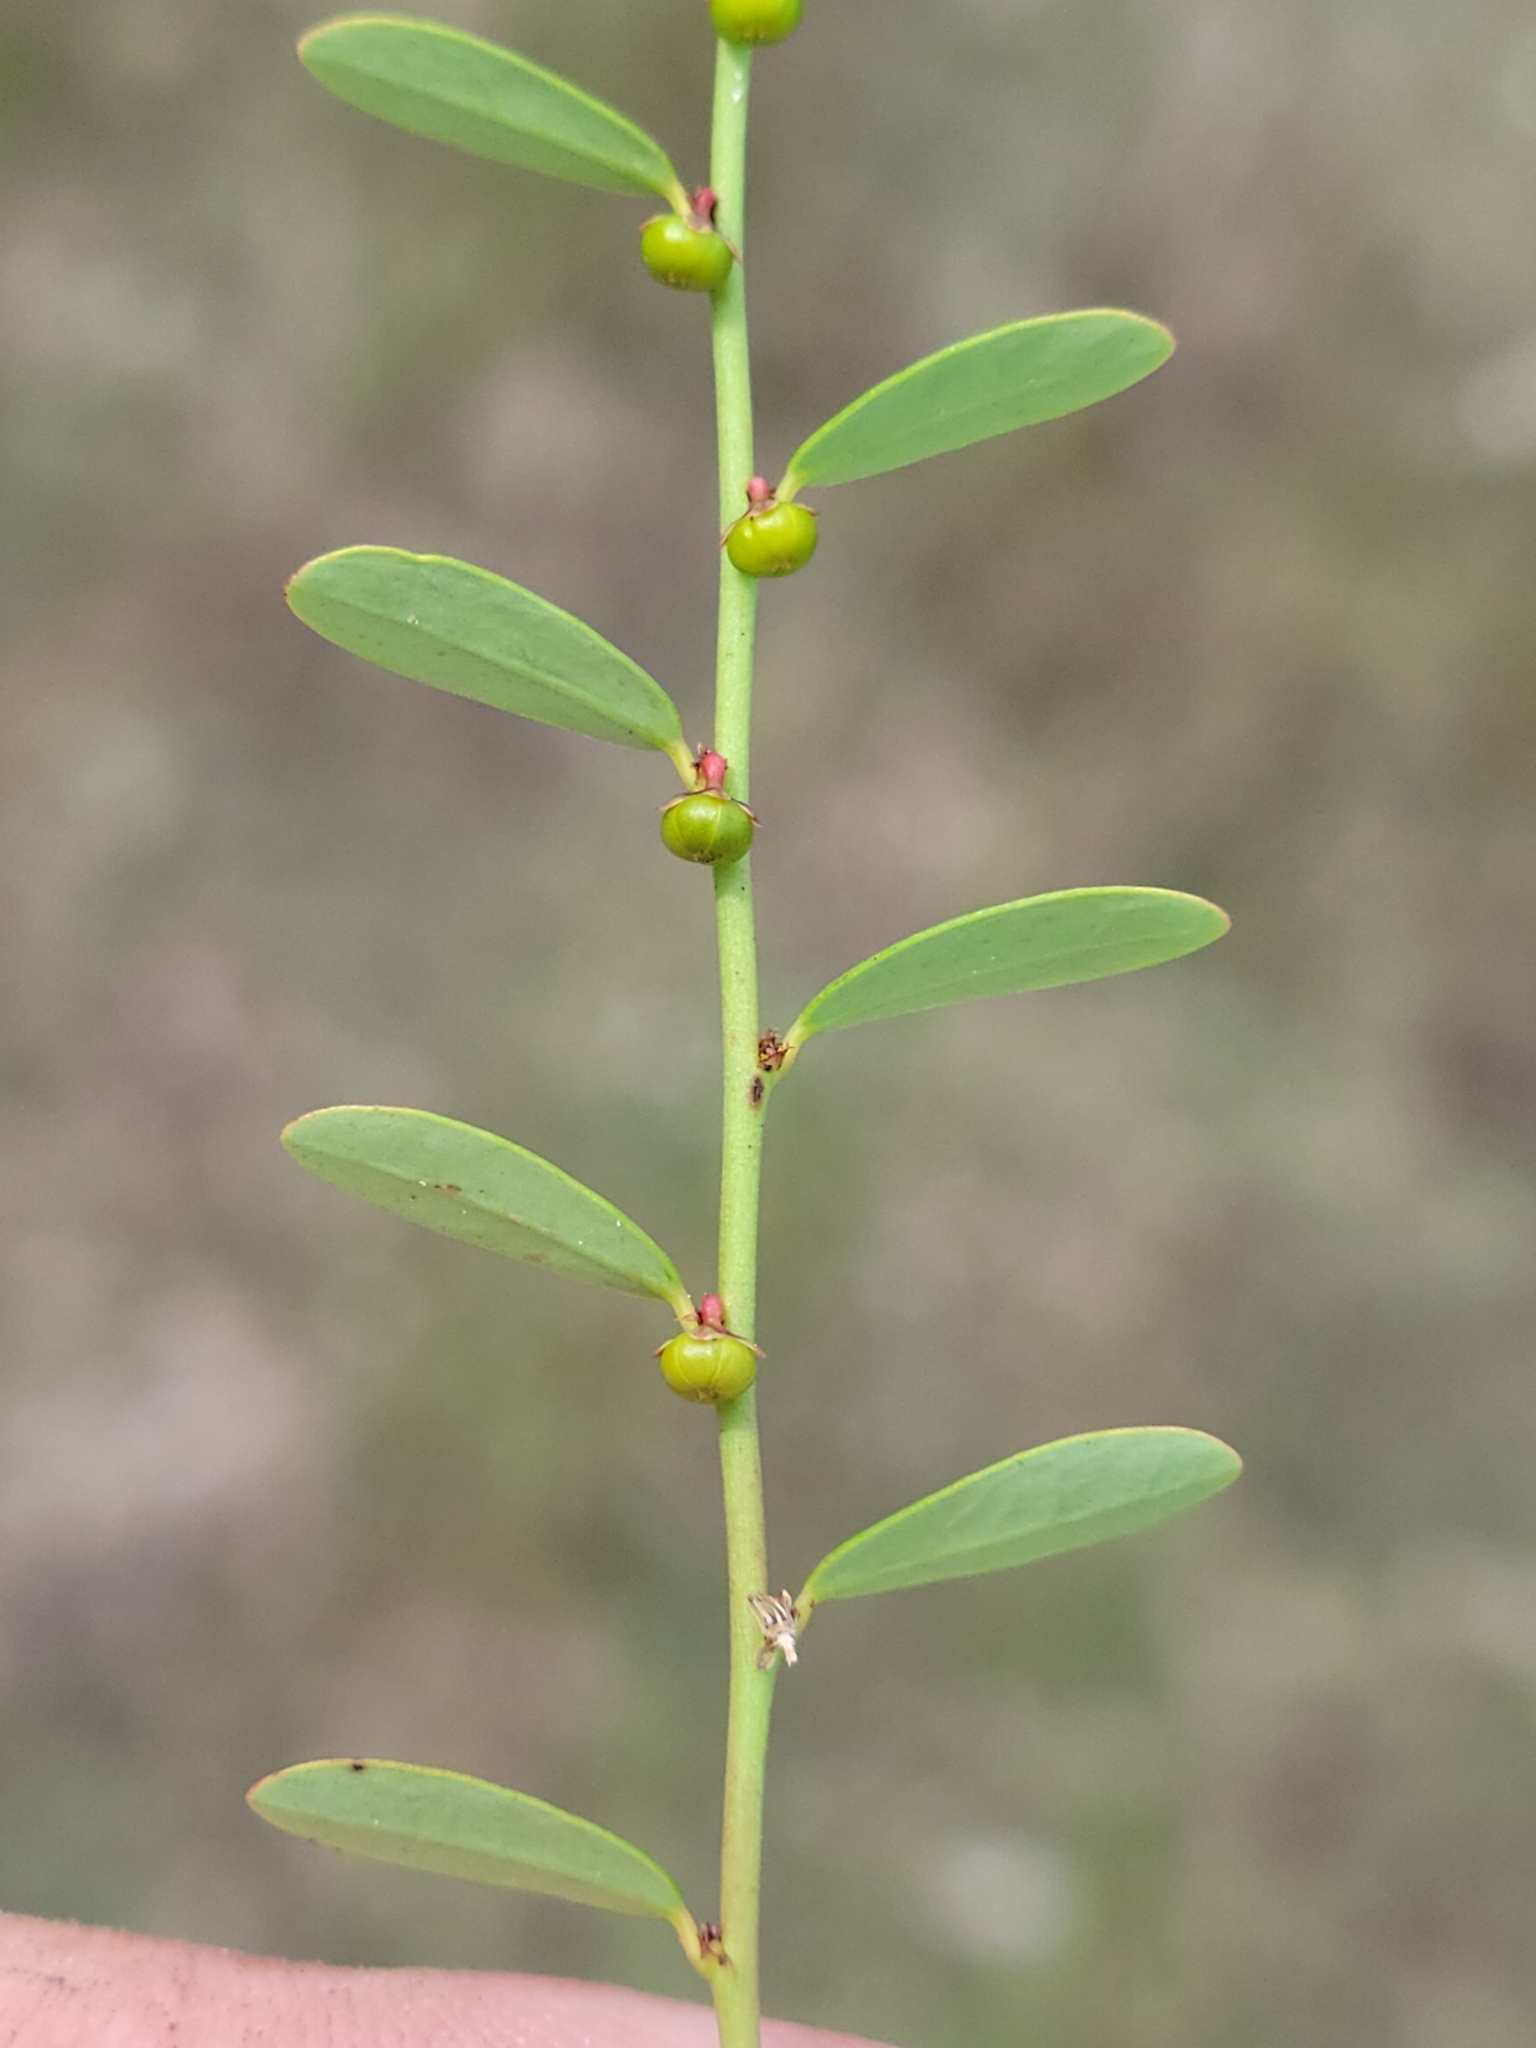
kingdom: Plantae
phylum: Tracheophyta
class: Magnoliopsida
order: Malpighiales
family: Phyllanthaceae
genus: Phyllanthus
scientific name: Phyllanthus caroliniensis
